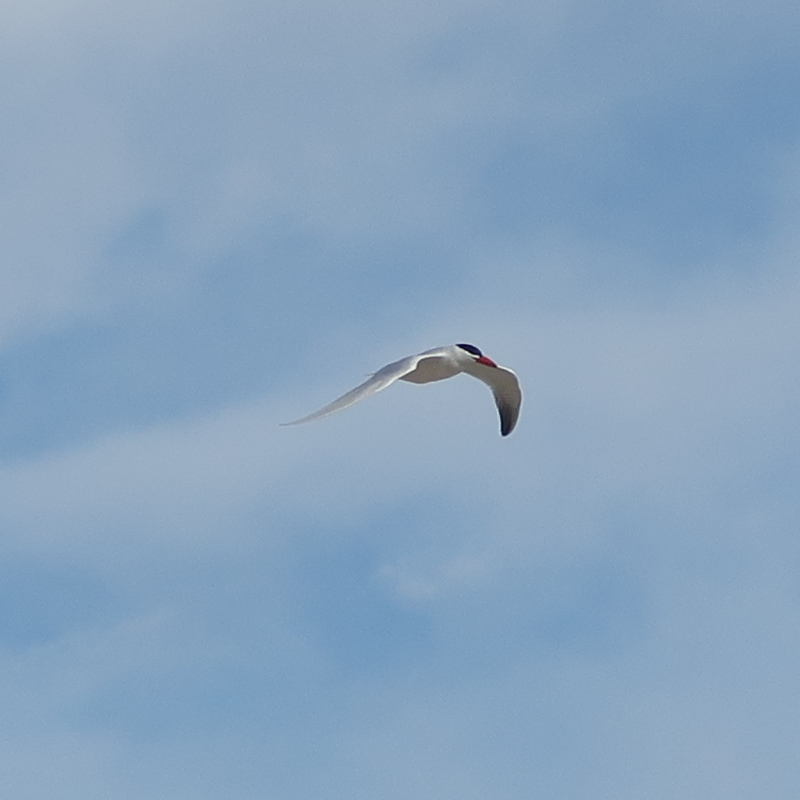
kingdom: Animalia
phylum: Chordata
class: Aves
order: Charadriiformes
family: Laridae
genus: Hydroprogne
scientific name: Hydroprogne caspia
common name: Caspian tern
